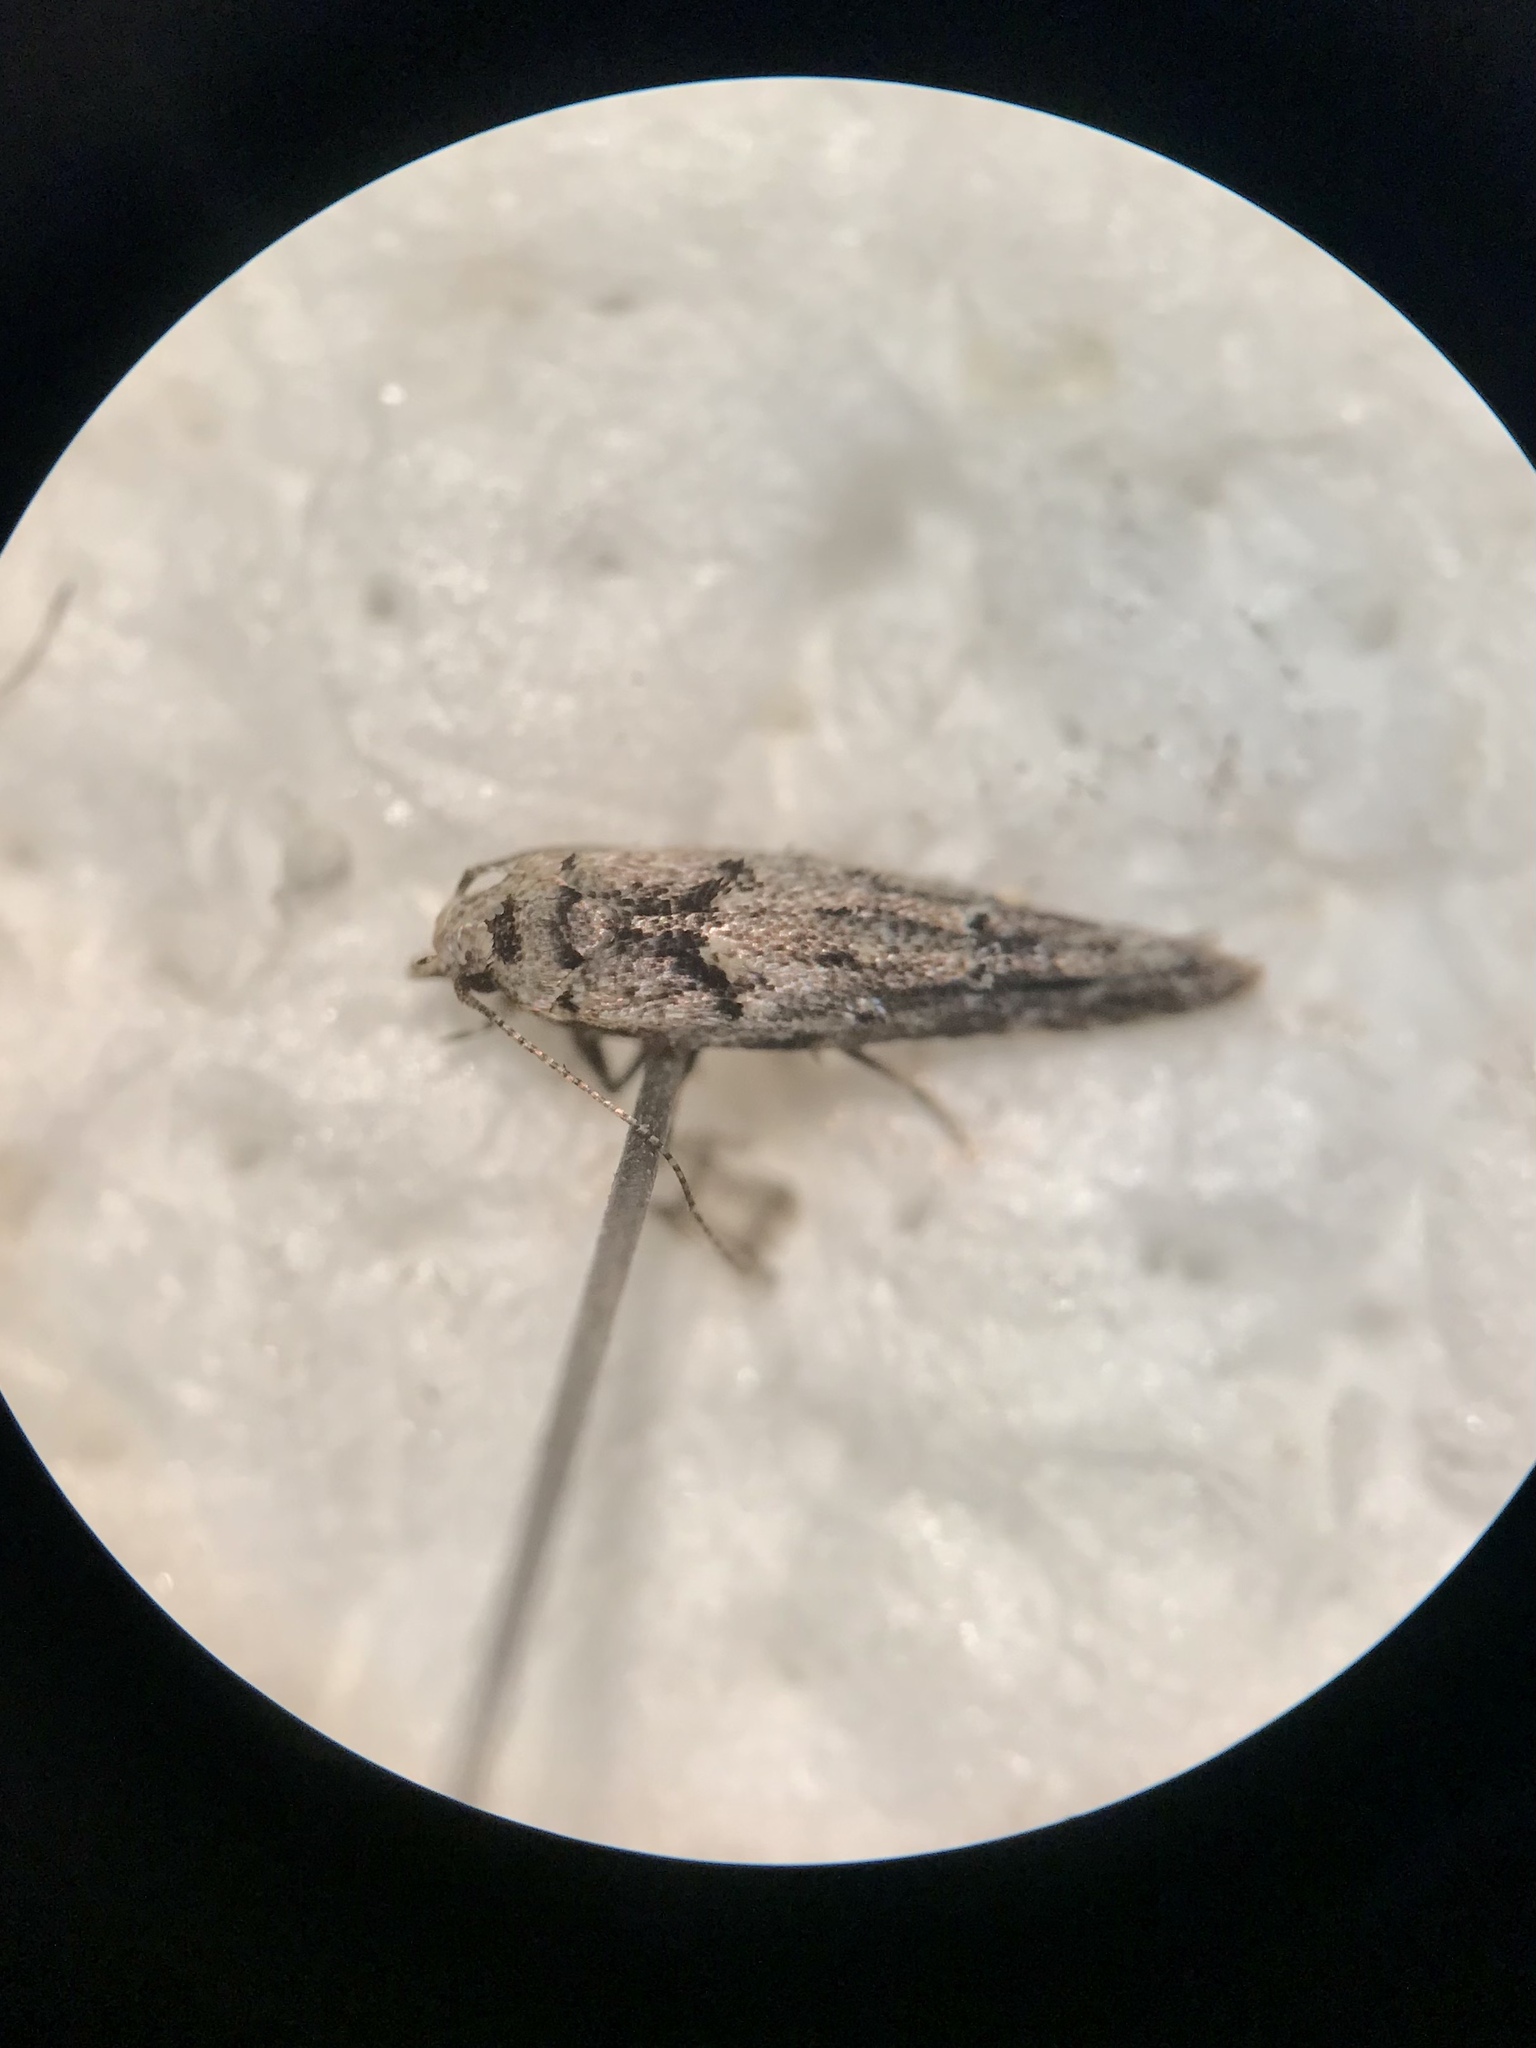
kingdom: Animalia
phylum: Arthropoda
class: Insecta
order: Lepidoptera
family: Gelechiidae
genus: Sinoe
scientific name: Sinoe robiniella
